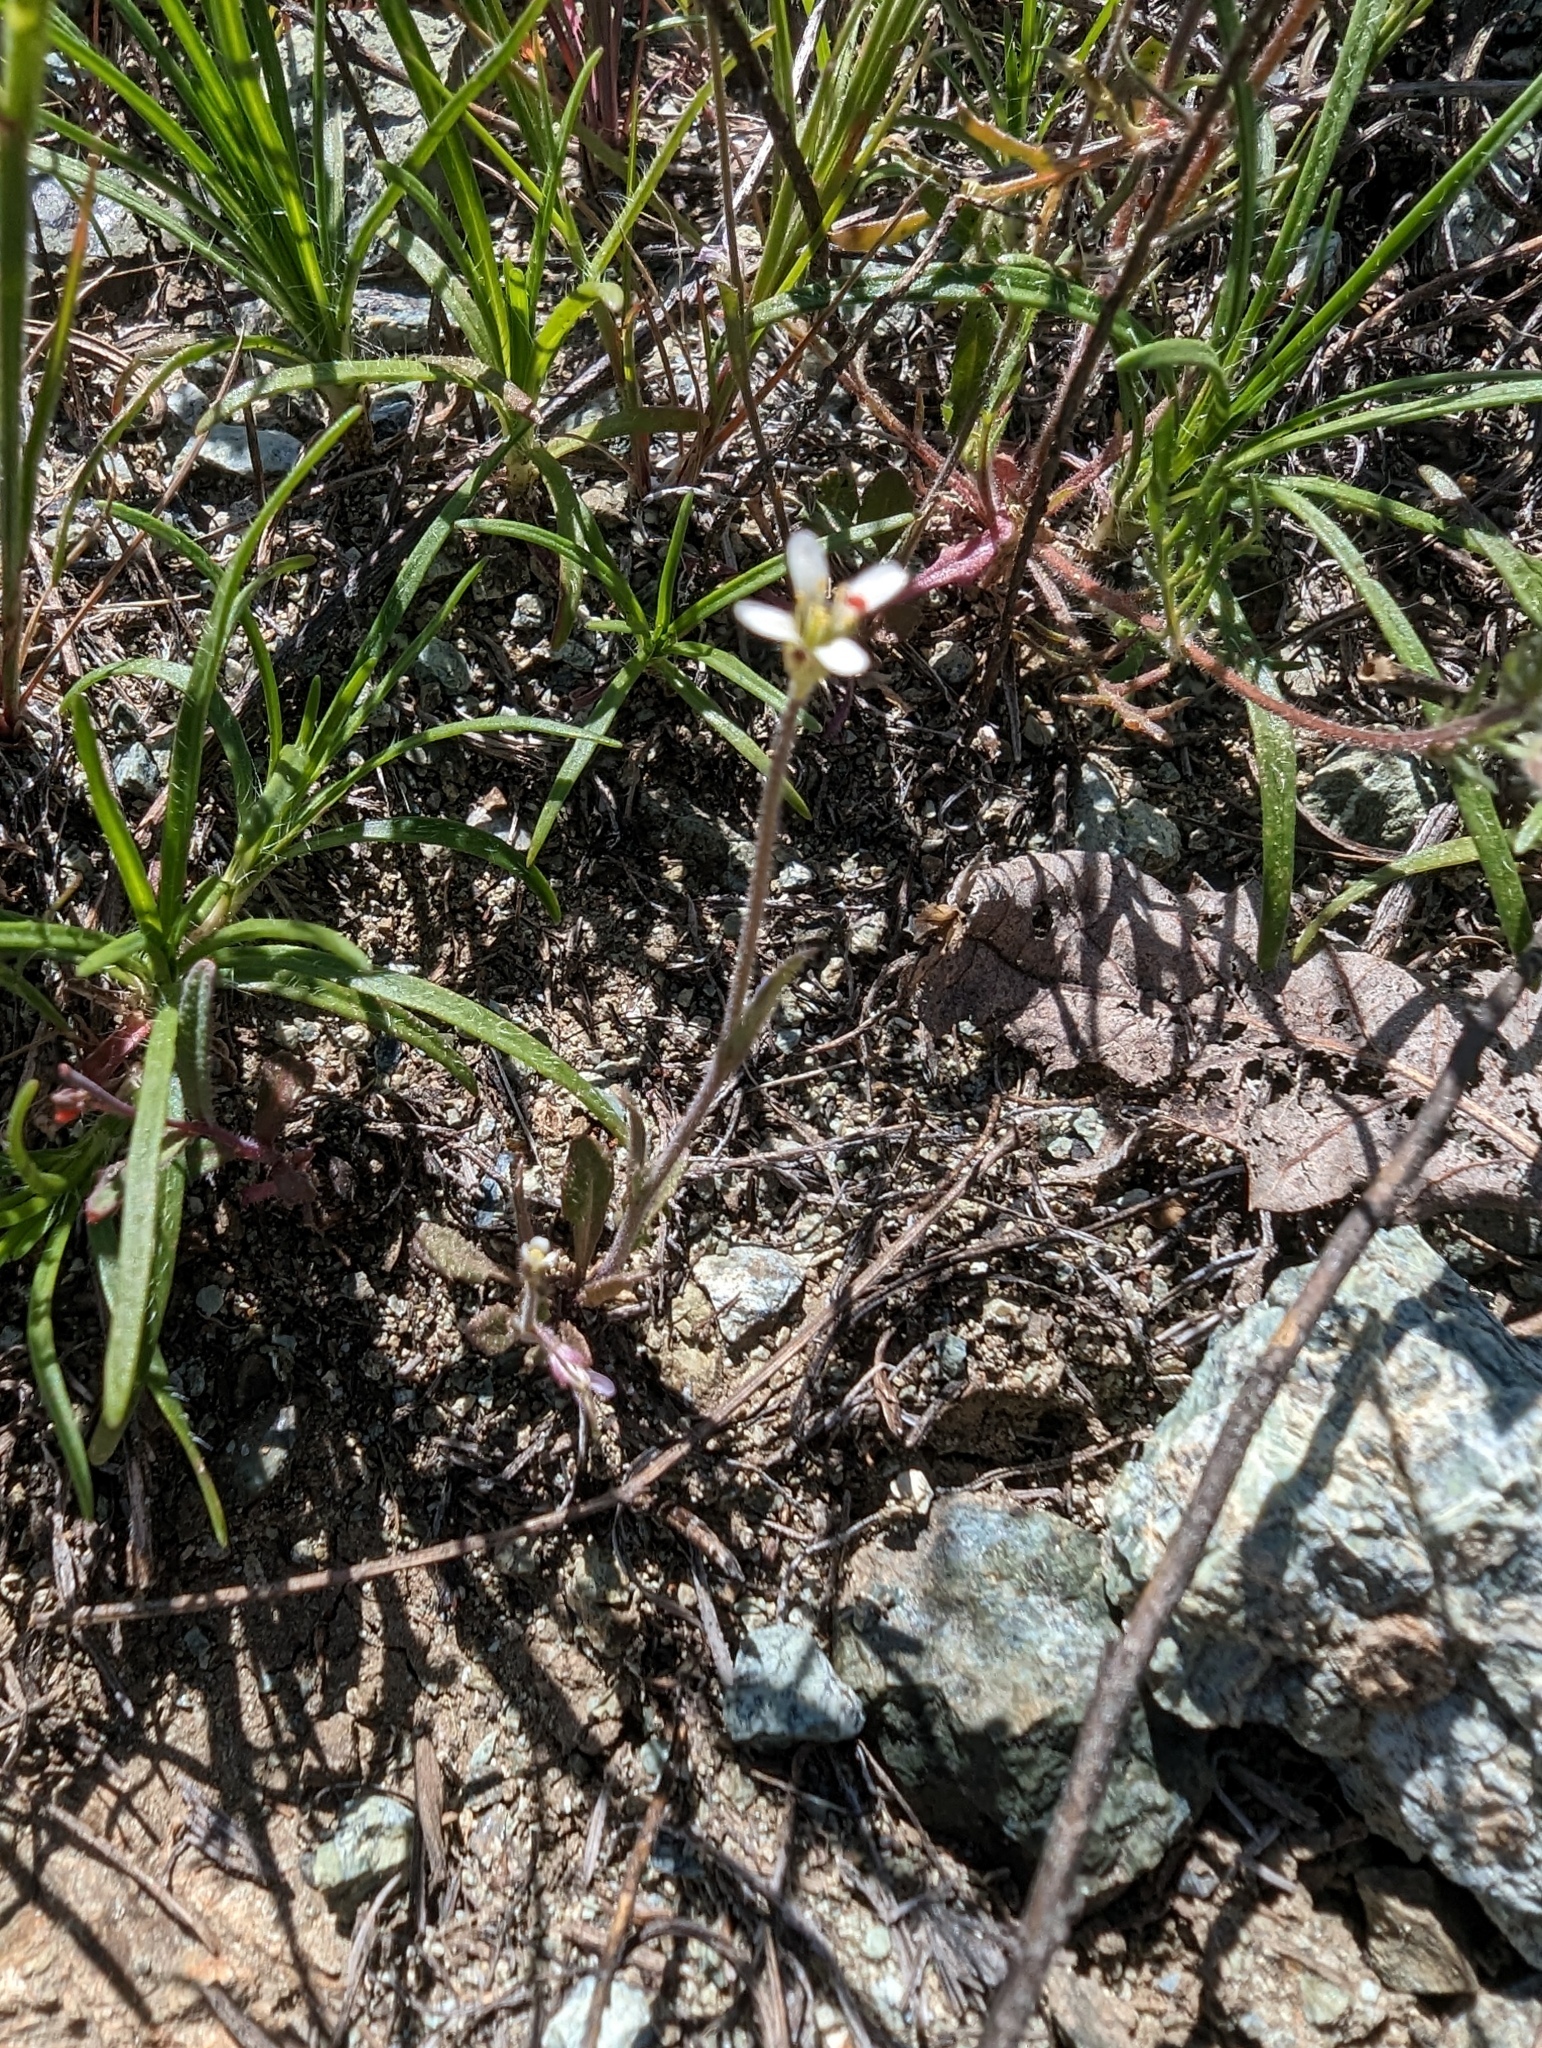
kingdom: Plantae
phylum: Tracheophyta
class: Magnoliopsida
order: Brassicales
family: Brassicaceae
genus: Streptanthus
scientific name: Streptanthus lasiophyllus
